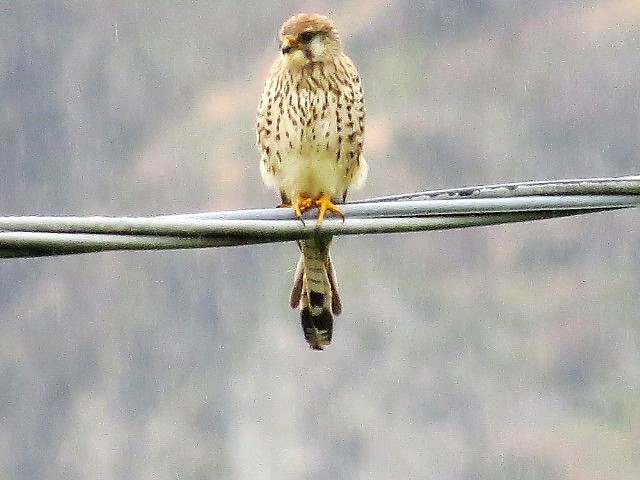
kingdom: Animalia
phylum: Chordata
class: Aves
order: Falconiformes
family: Falconidae
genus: Falco
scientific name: Falco tinnunculus
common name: Common kestrel
